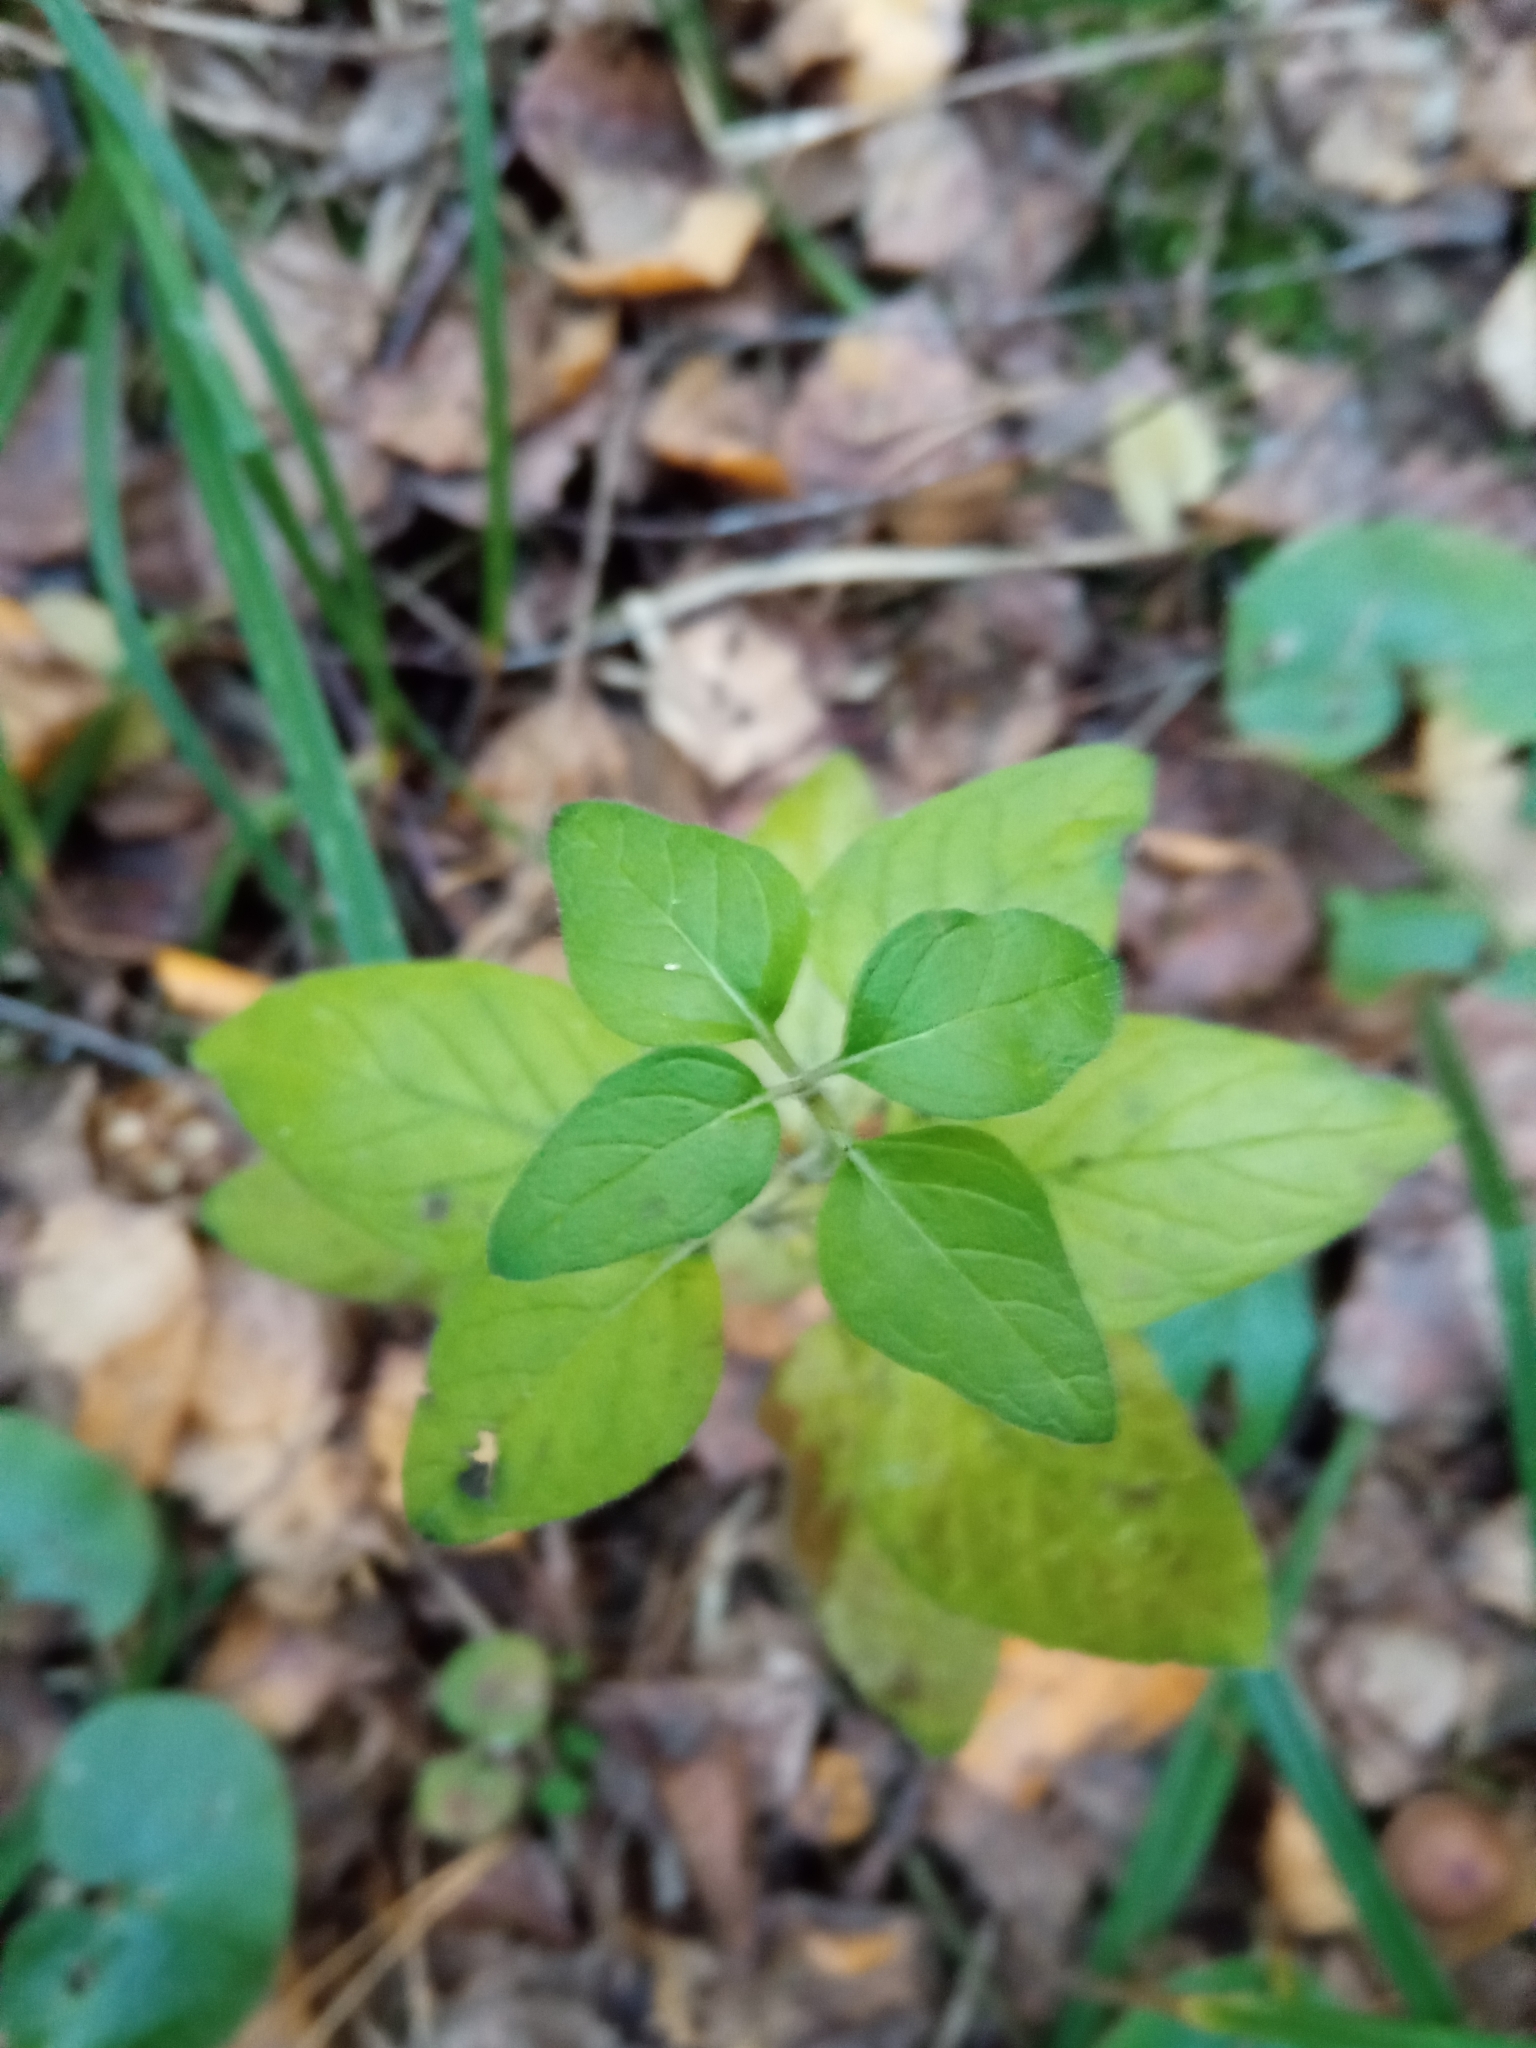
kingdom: Plantae
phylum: Tracheophyta
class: Magnoliopsida
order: Lamiales
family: Lamiaceae
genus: Clinopodium
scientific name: Clinopodium vulgare
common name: Wild basil
